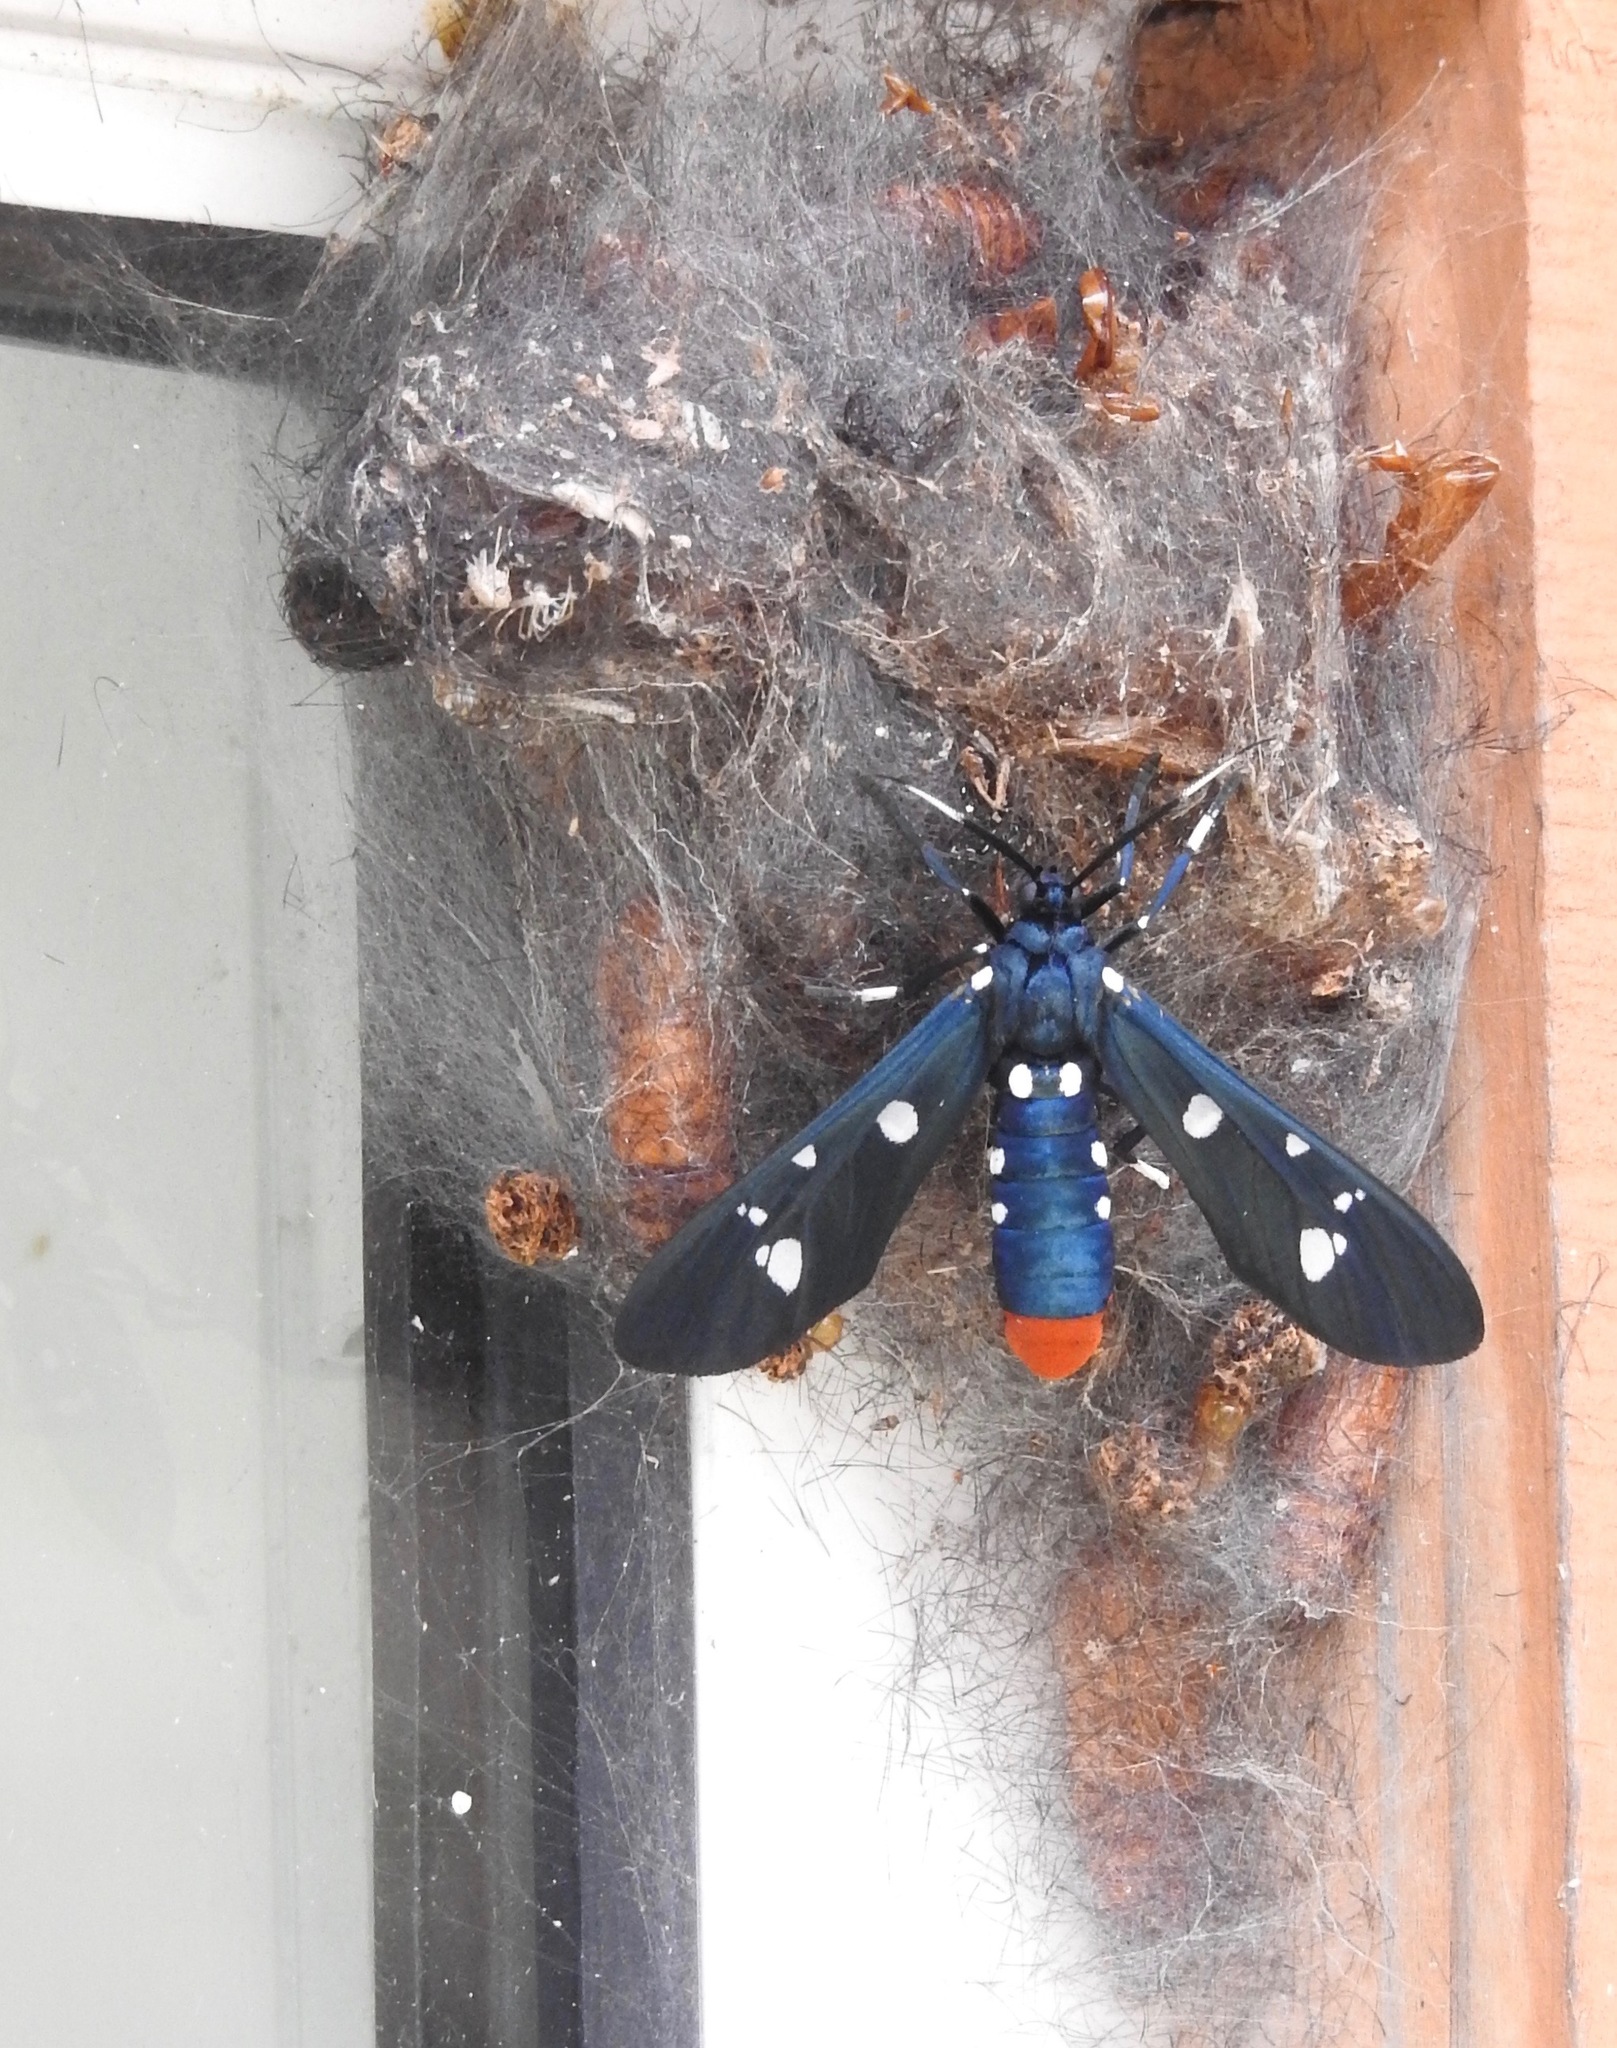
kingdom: Animalia
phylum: Arthropoda
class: Insecta
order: Lepidoptera
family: Erebidae
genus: Syntomeida
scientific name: Syntomeida epilais
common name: Polka-dot wasp moth
